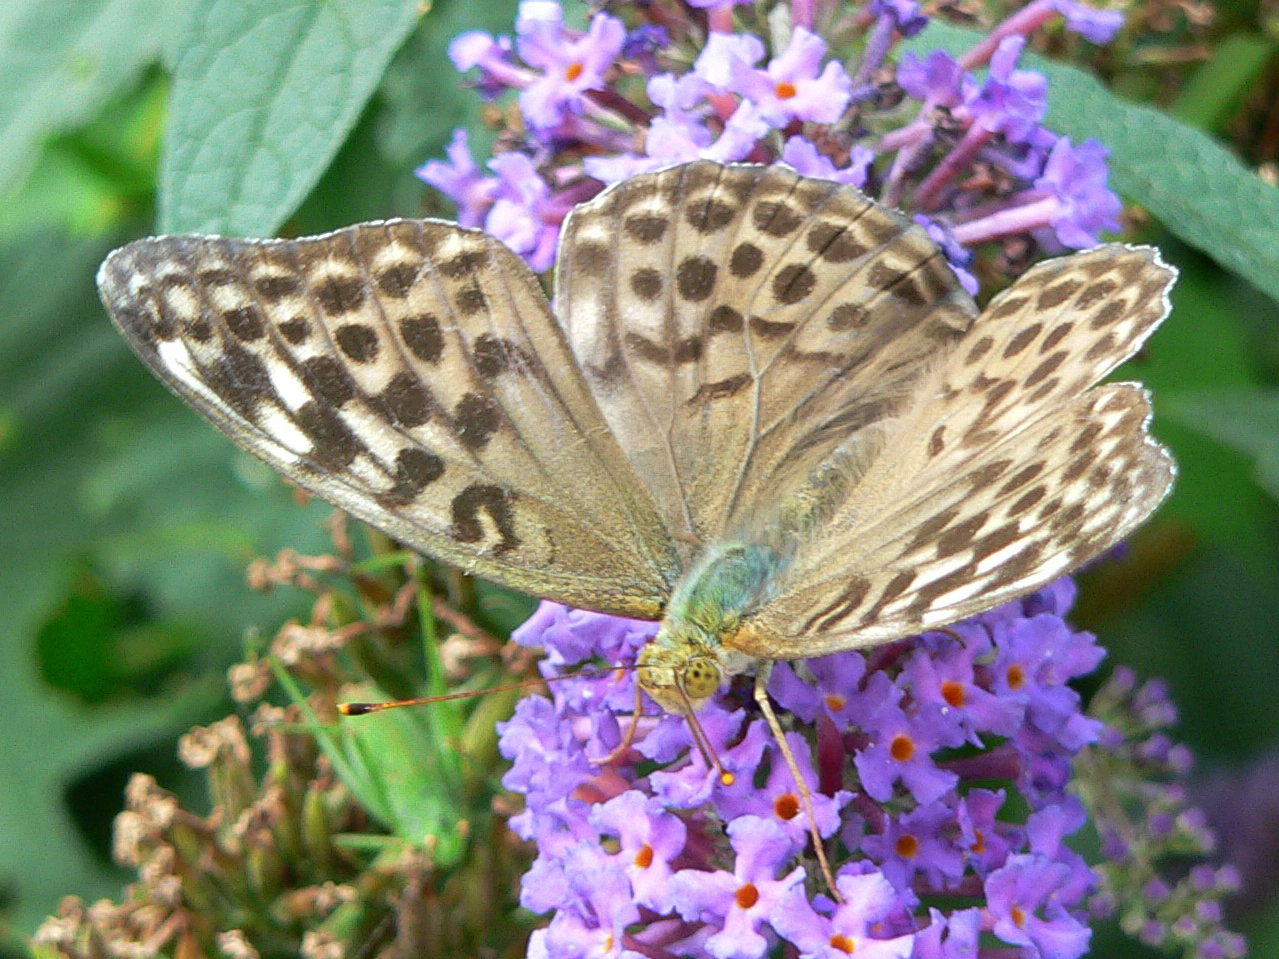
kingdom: Animalia
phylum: Arthropoda
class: Insecta
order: Lepidoptera
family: Nymphalidae
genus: Argynnis
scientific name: Argynnis paphia
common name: Silver-washed fritillary
